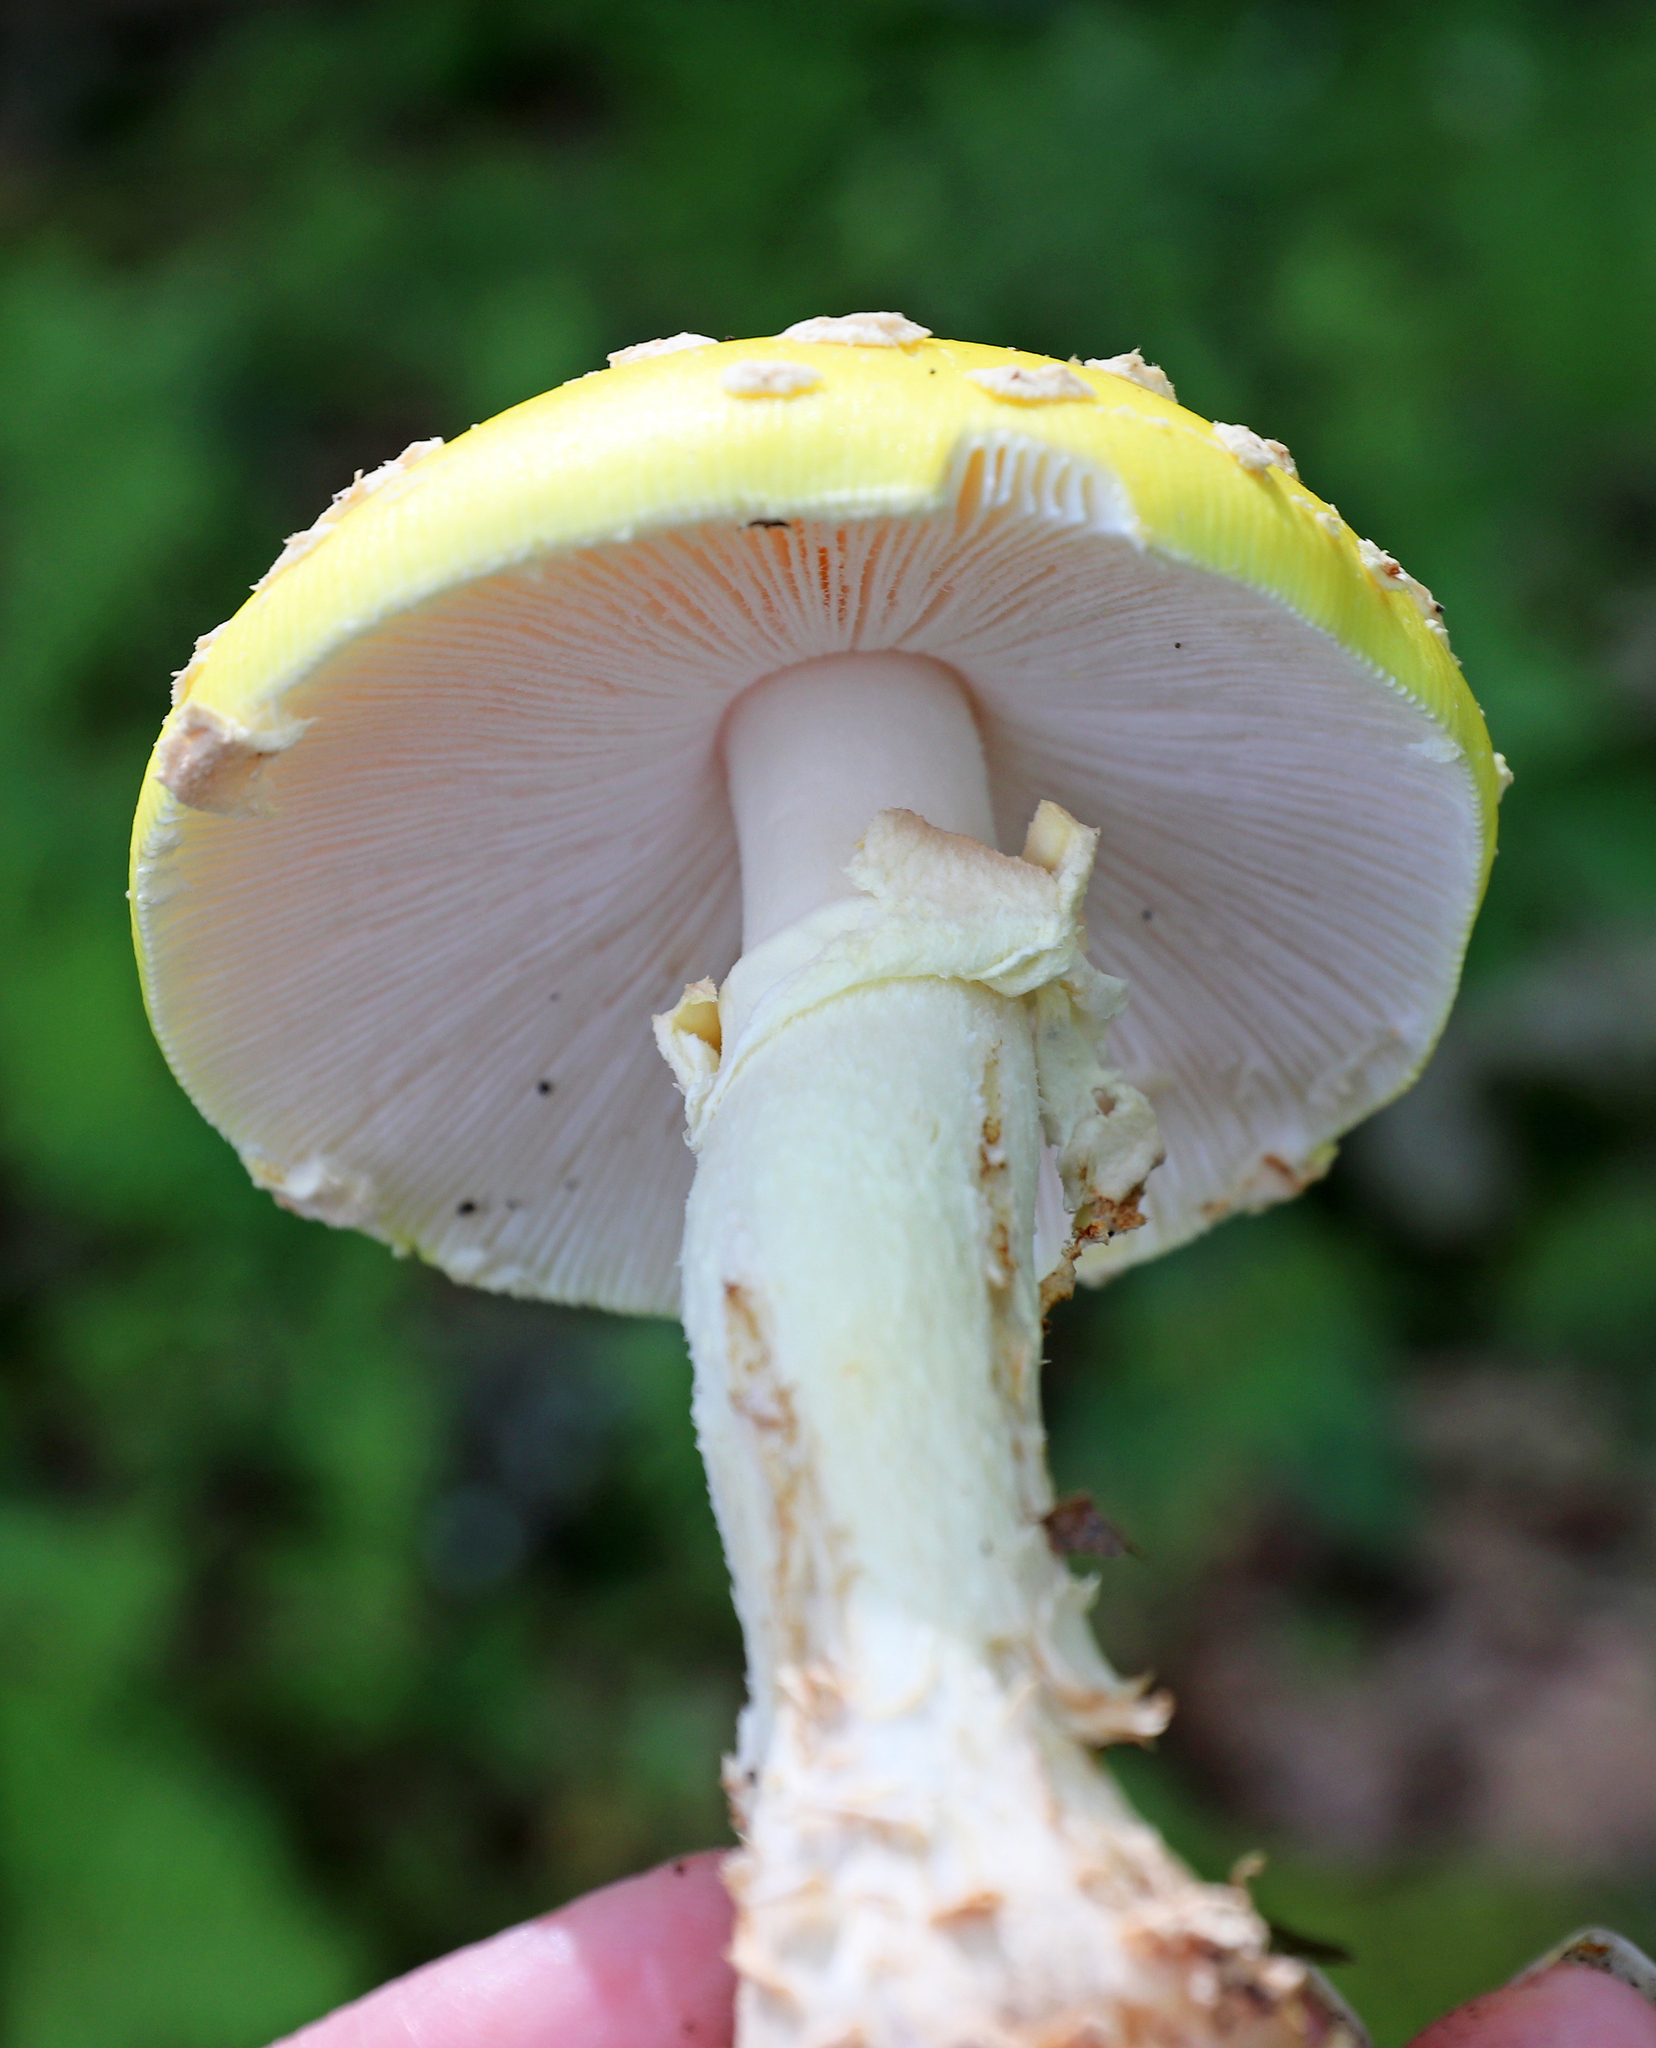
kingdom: Fungi
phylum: Basidiomycota
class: Agaricomycetes
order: Agaricales
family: Amanitaceae
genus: Amanita
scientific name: Amanita muscaria
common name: Fly agaric
